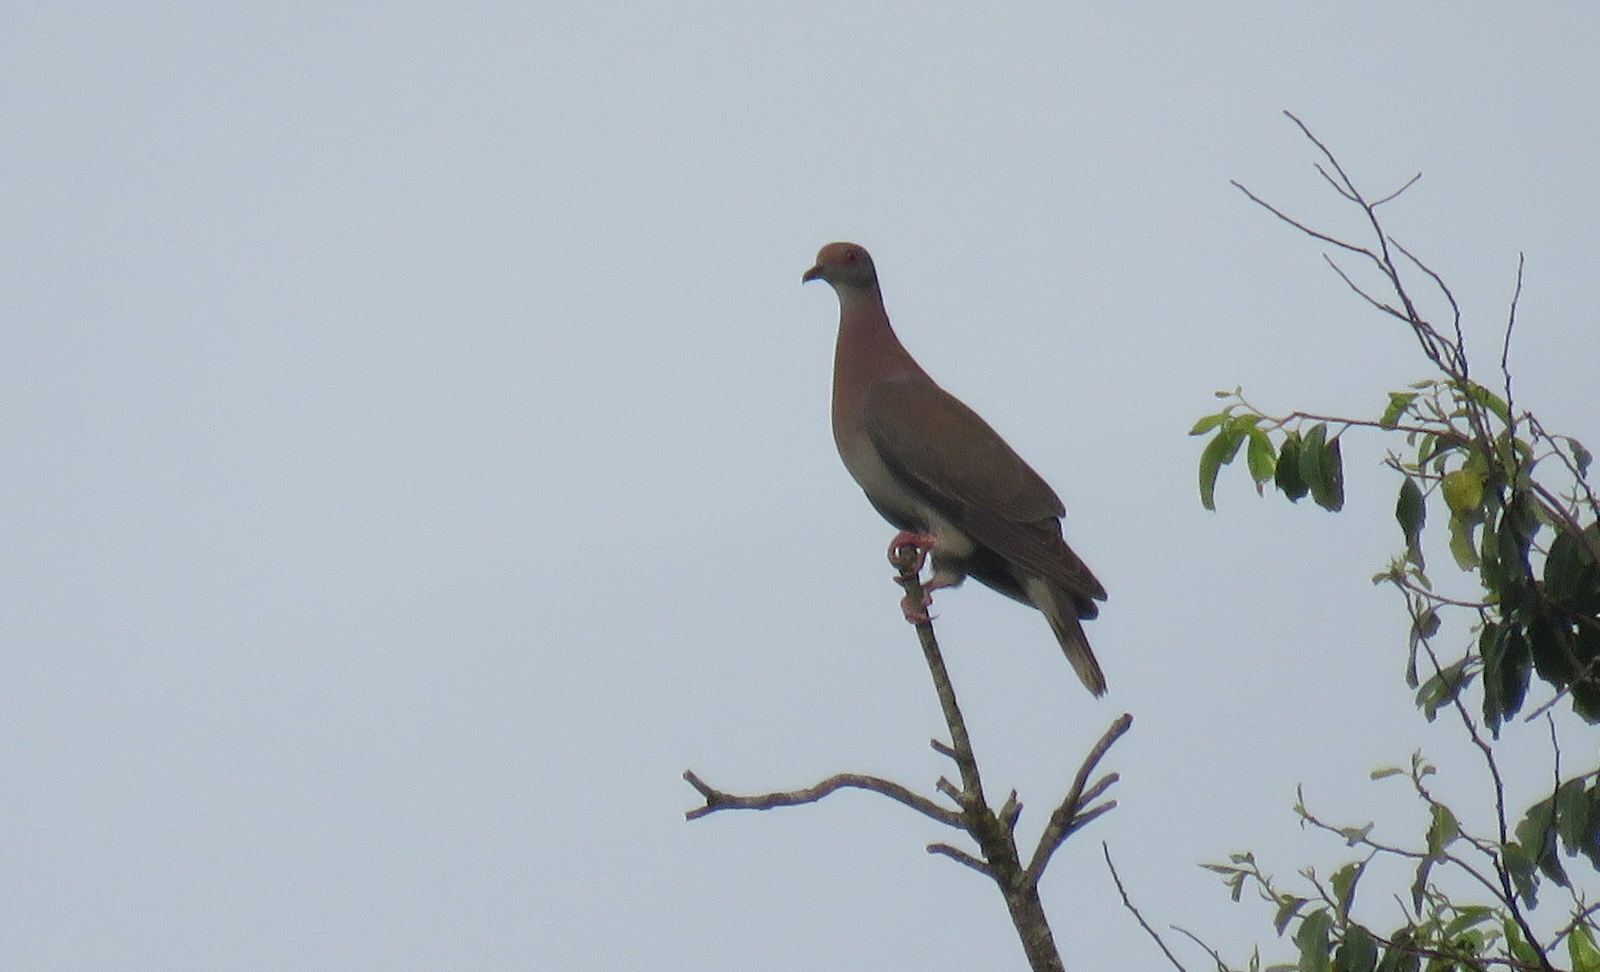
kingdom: Animalia
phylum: Chordata
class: Aves
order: Columbiformes
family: Columbidae
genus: Patagioenas
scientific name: Patagioenas cayennensis
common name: Pale-vented pigeon
